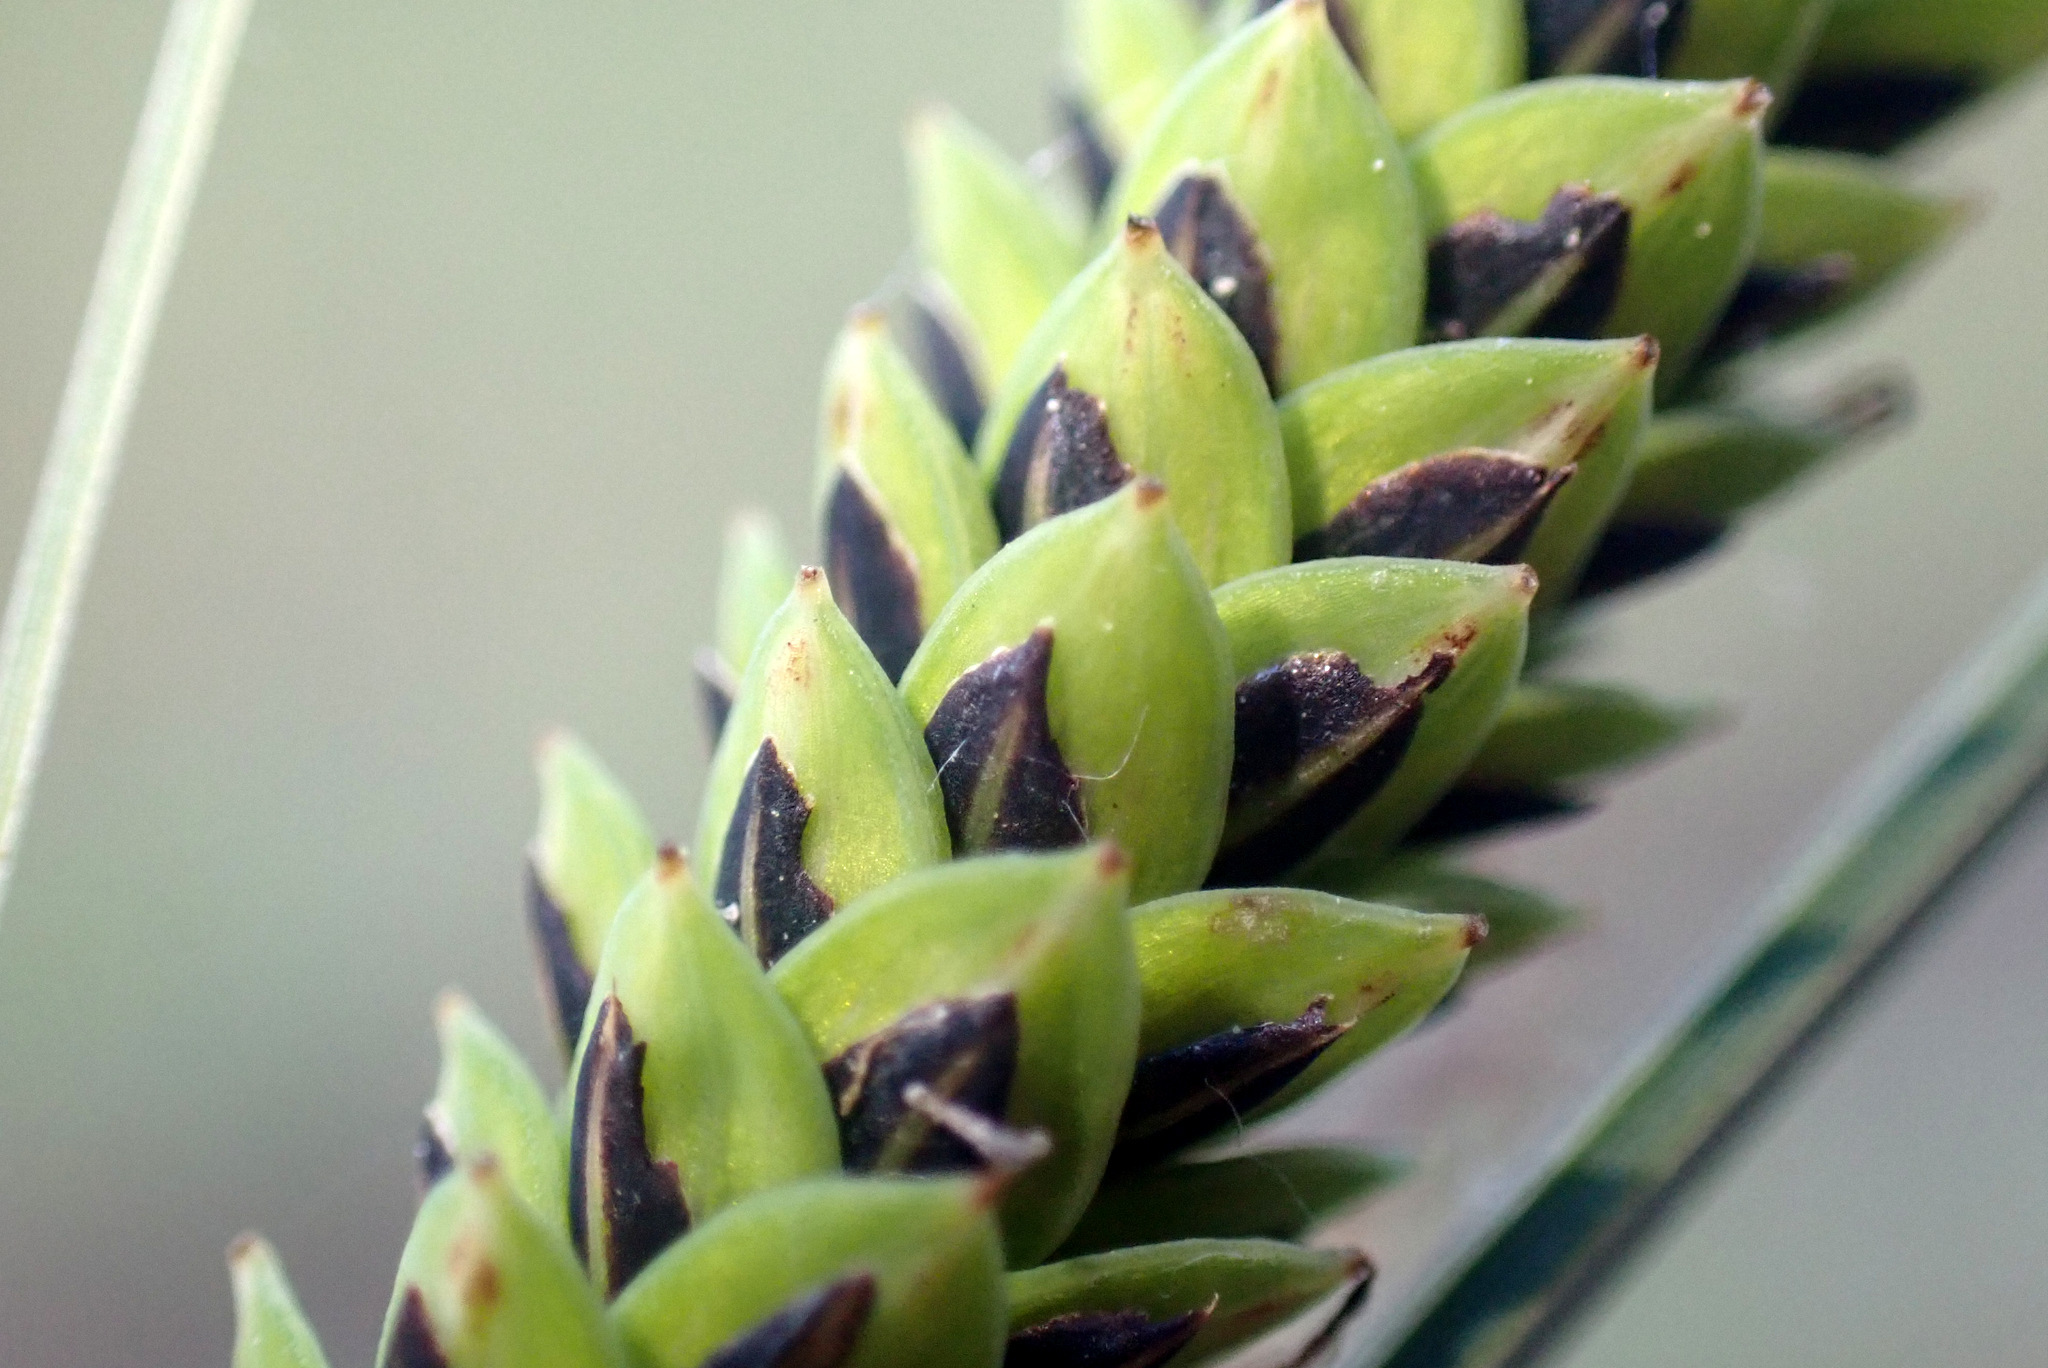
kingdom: Plantae
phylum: Tracheophyta
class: Liliopsida
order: Poales
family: Cyperaceae
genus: Carex
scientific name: Carex elata
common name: Tufted sedge
